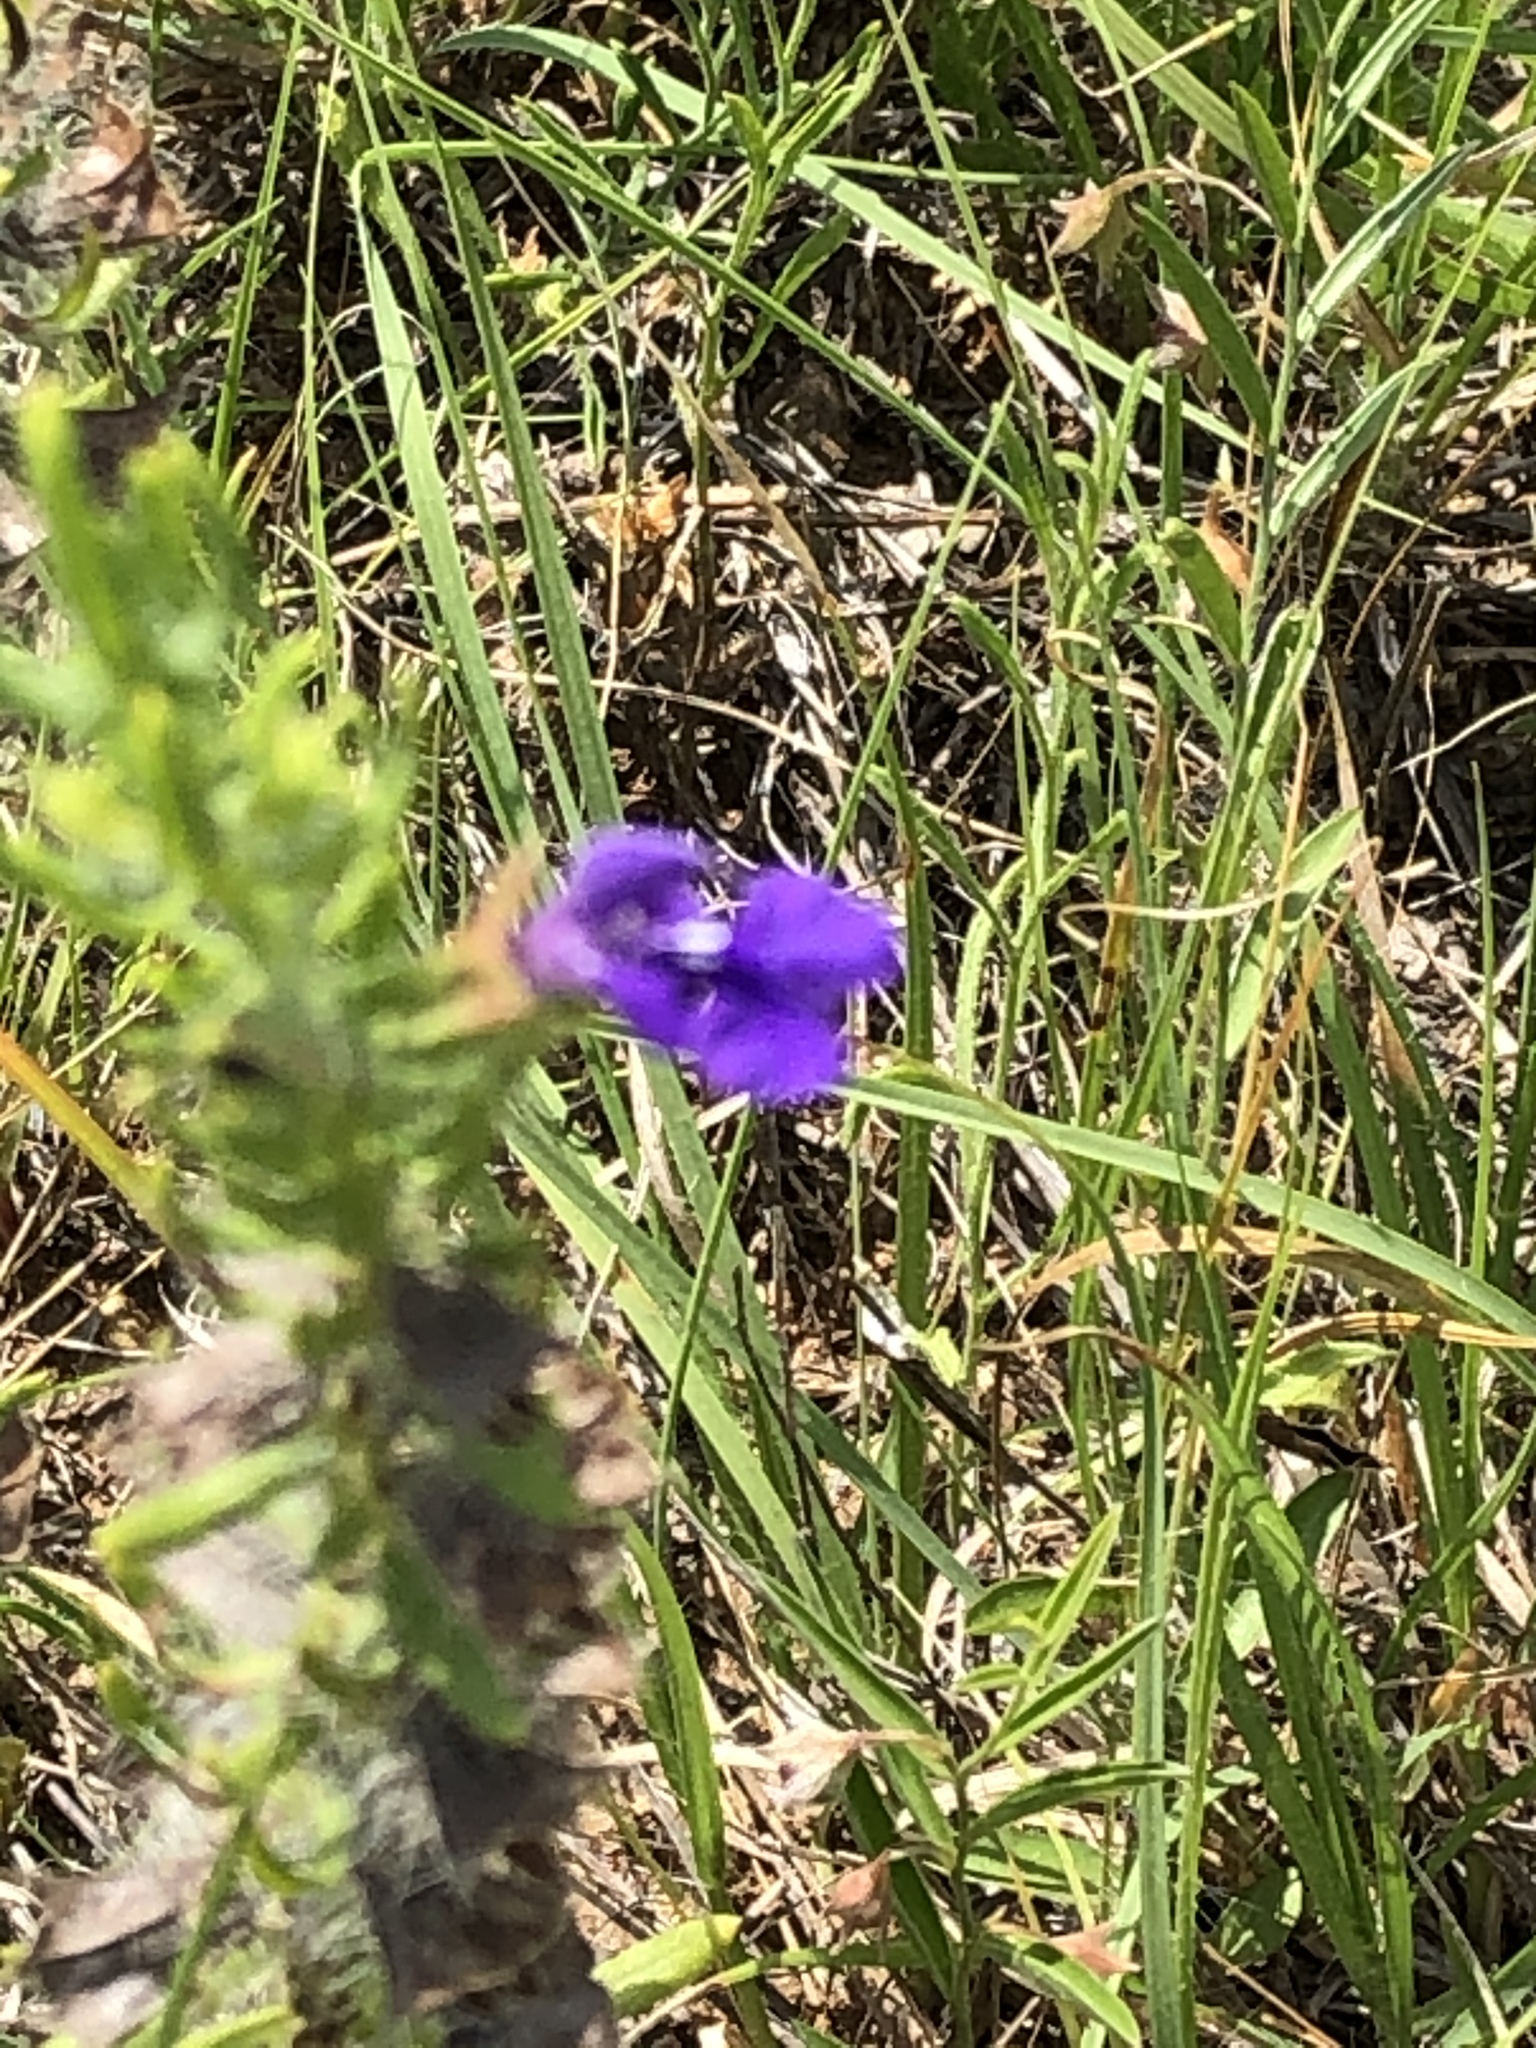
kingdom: Plantae
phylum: Tracheophyta
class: Magnoliopsida
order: Lamiales
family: Lamiaceae
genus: Salvia
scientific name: Salvia texana
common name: Texas sage
